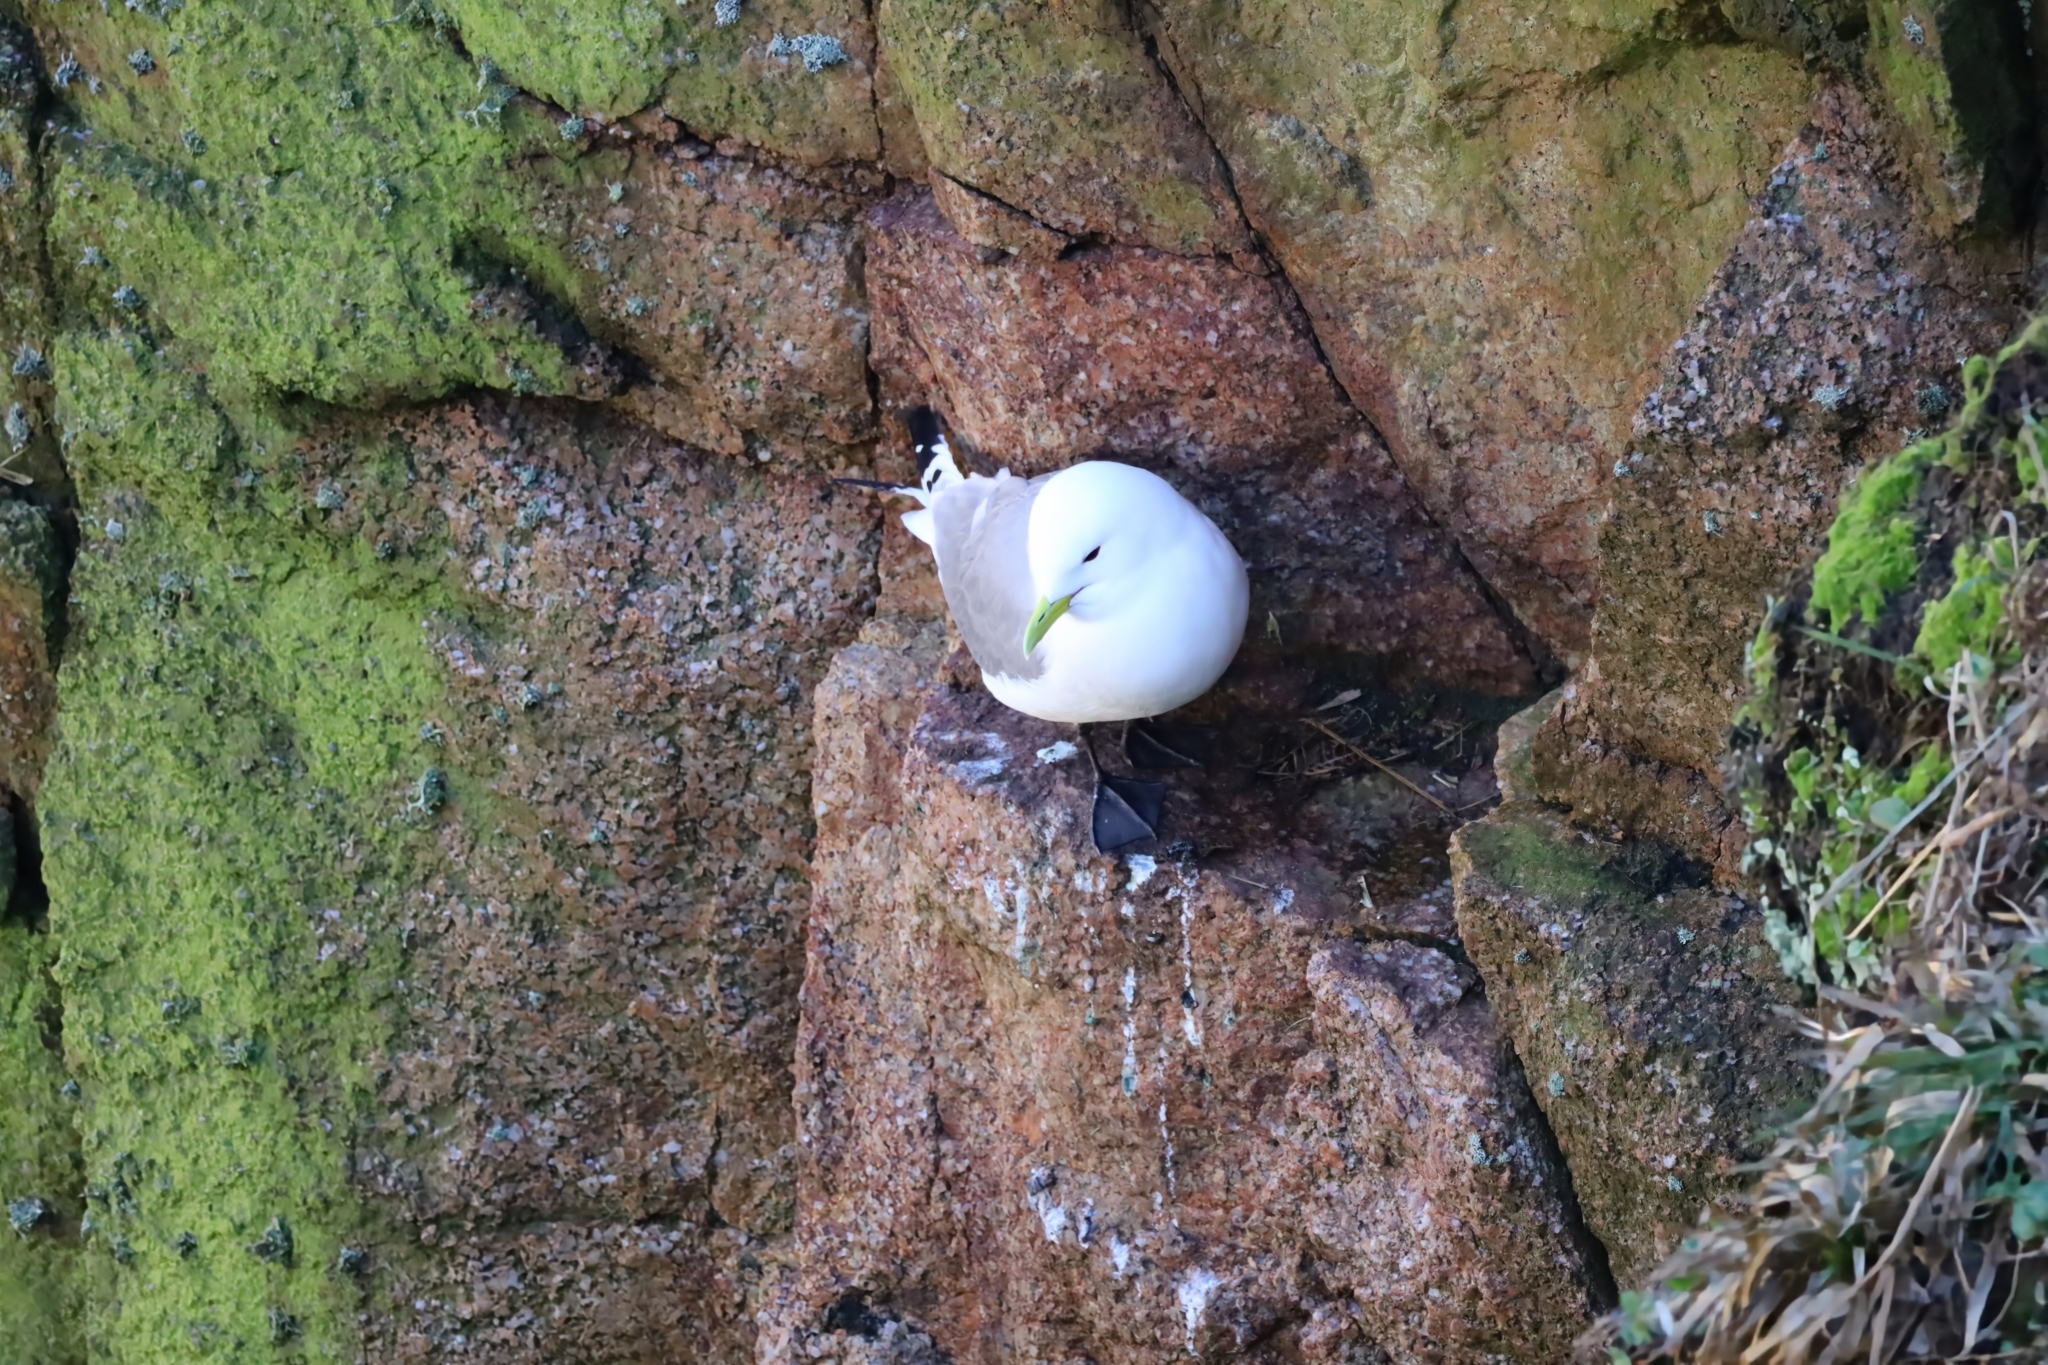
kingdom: Animalia
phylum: Chordata
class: Aves
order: Charadriiformes
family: Laridae
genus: Rissa
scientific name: Rissa tridactyla
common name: Black-legged kittiwake
